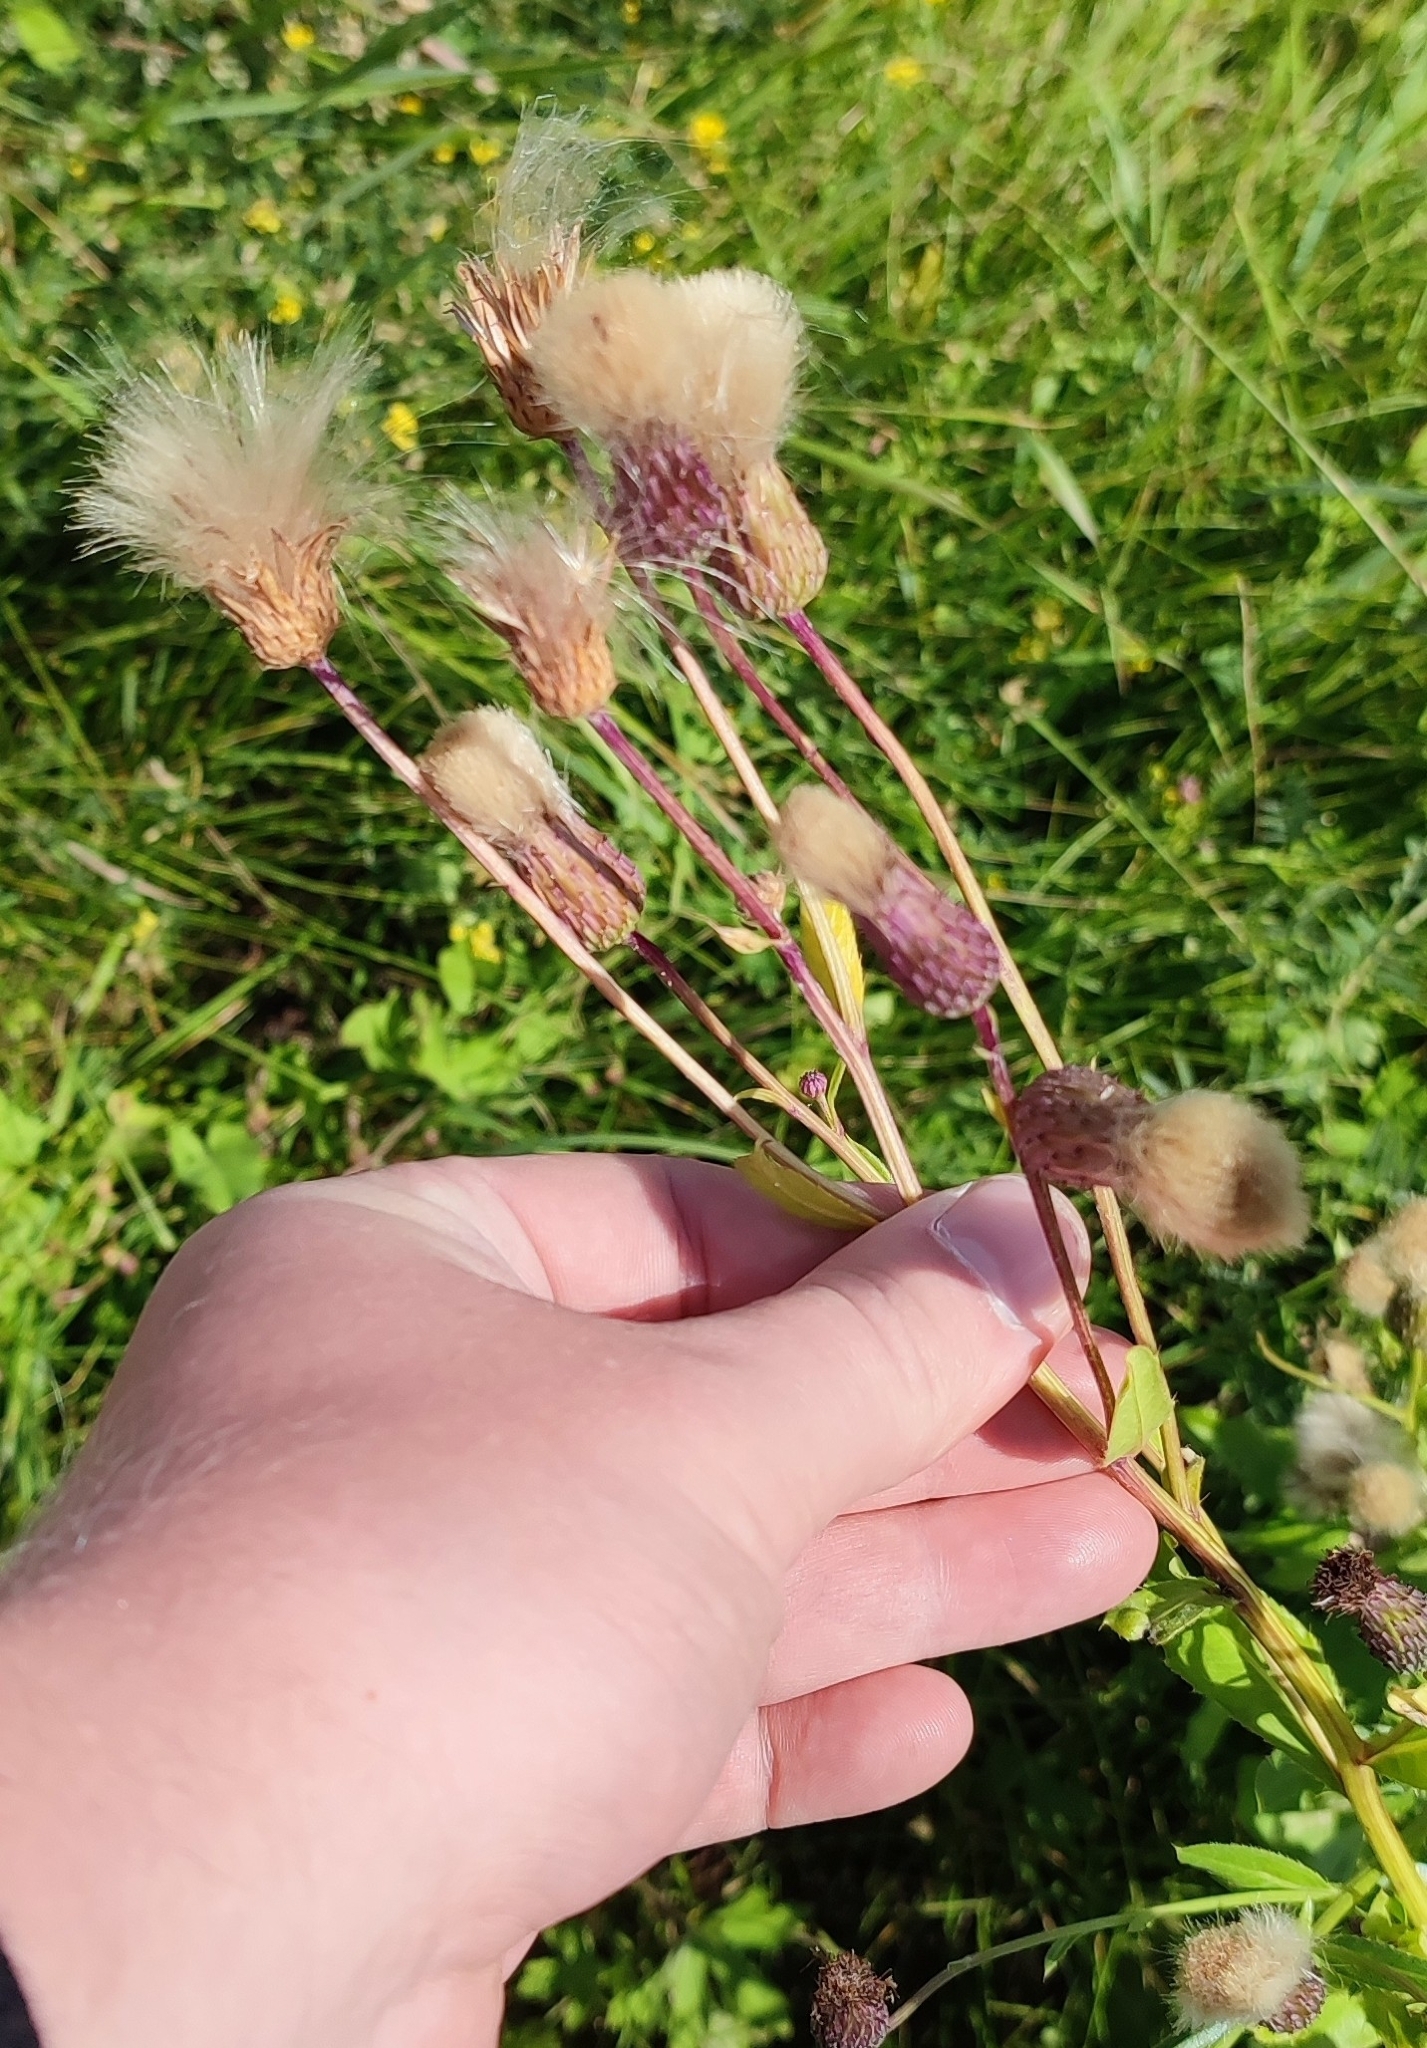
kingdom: Plantae
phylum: Tracheophyta
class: Magnoliopsida
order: Asterales
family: Asteraceae
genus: Cirsium
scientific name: Cirsium arvense
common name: Creeping thistle
